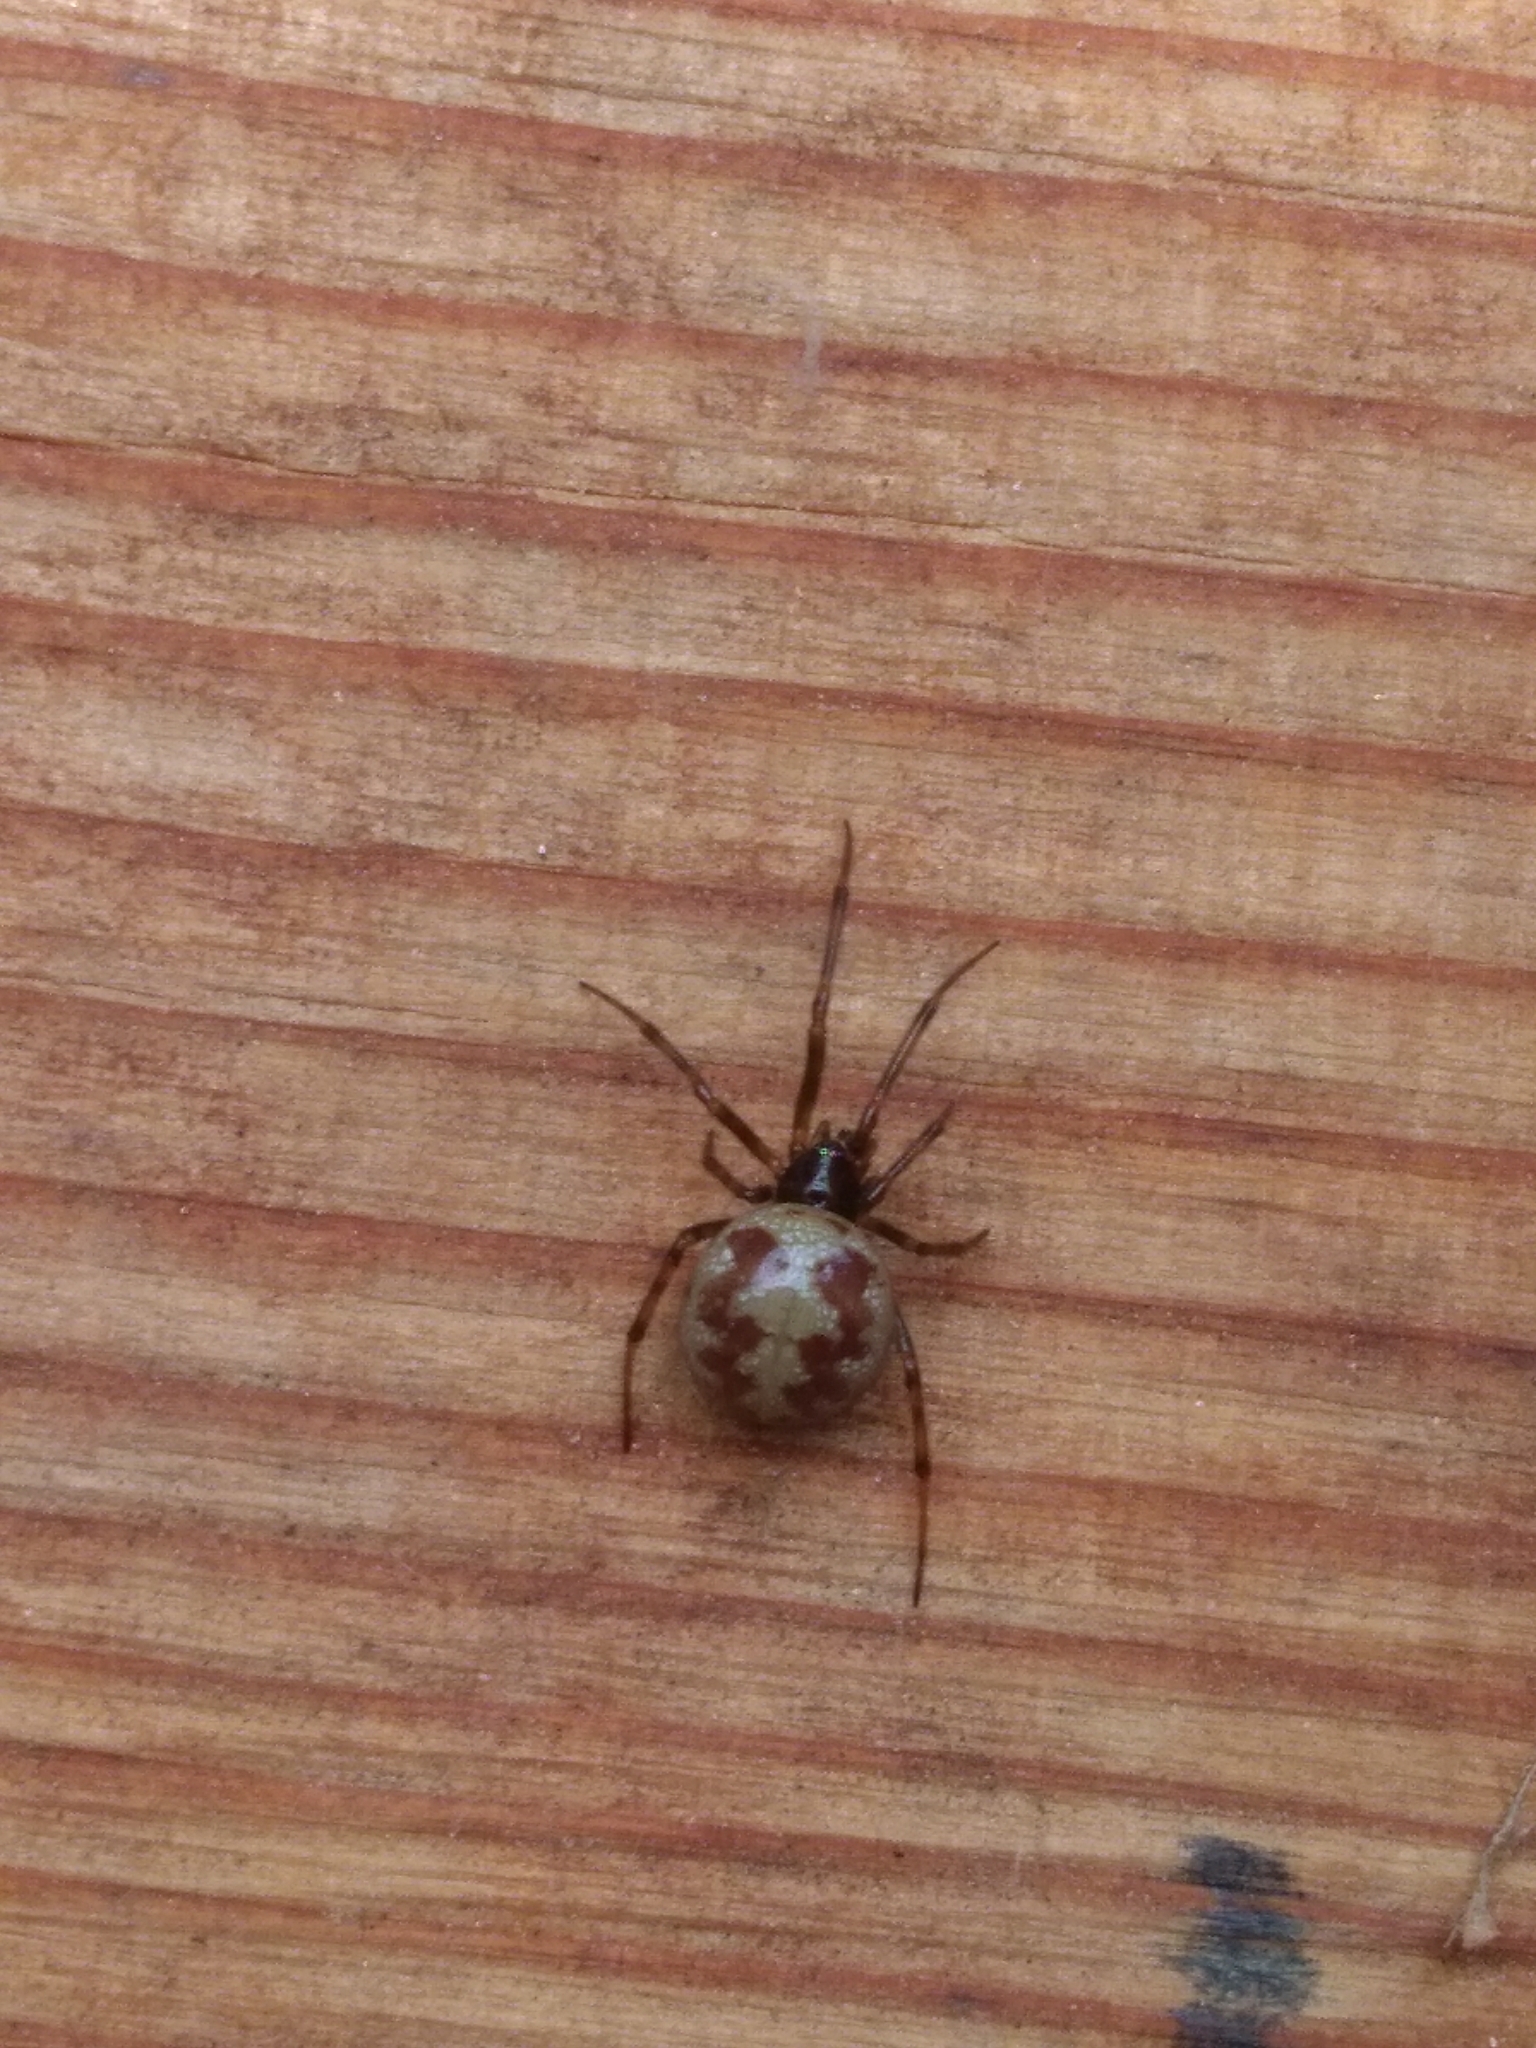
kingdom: Animalia
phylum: Arthropoda
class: Arachnida
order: Araneae
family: Theridiidae
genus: Steatoda
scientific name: Steatoda triangulosa
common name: Triangulate bud spider
